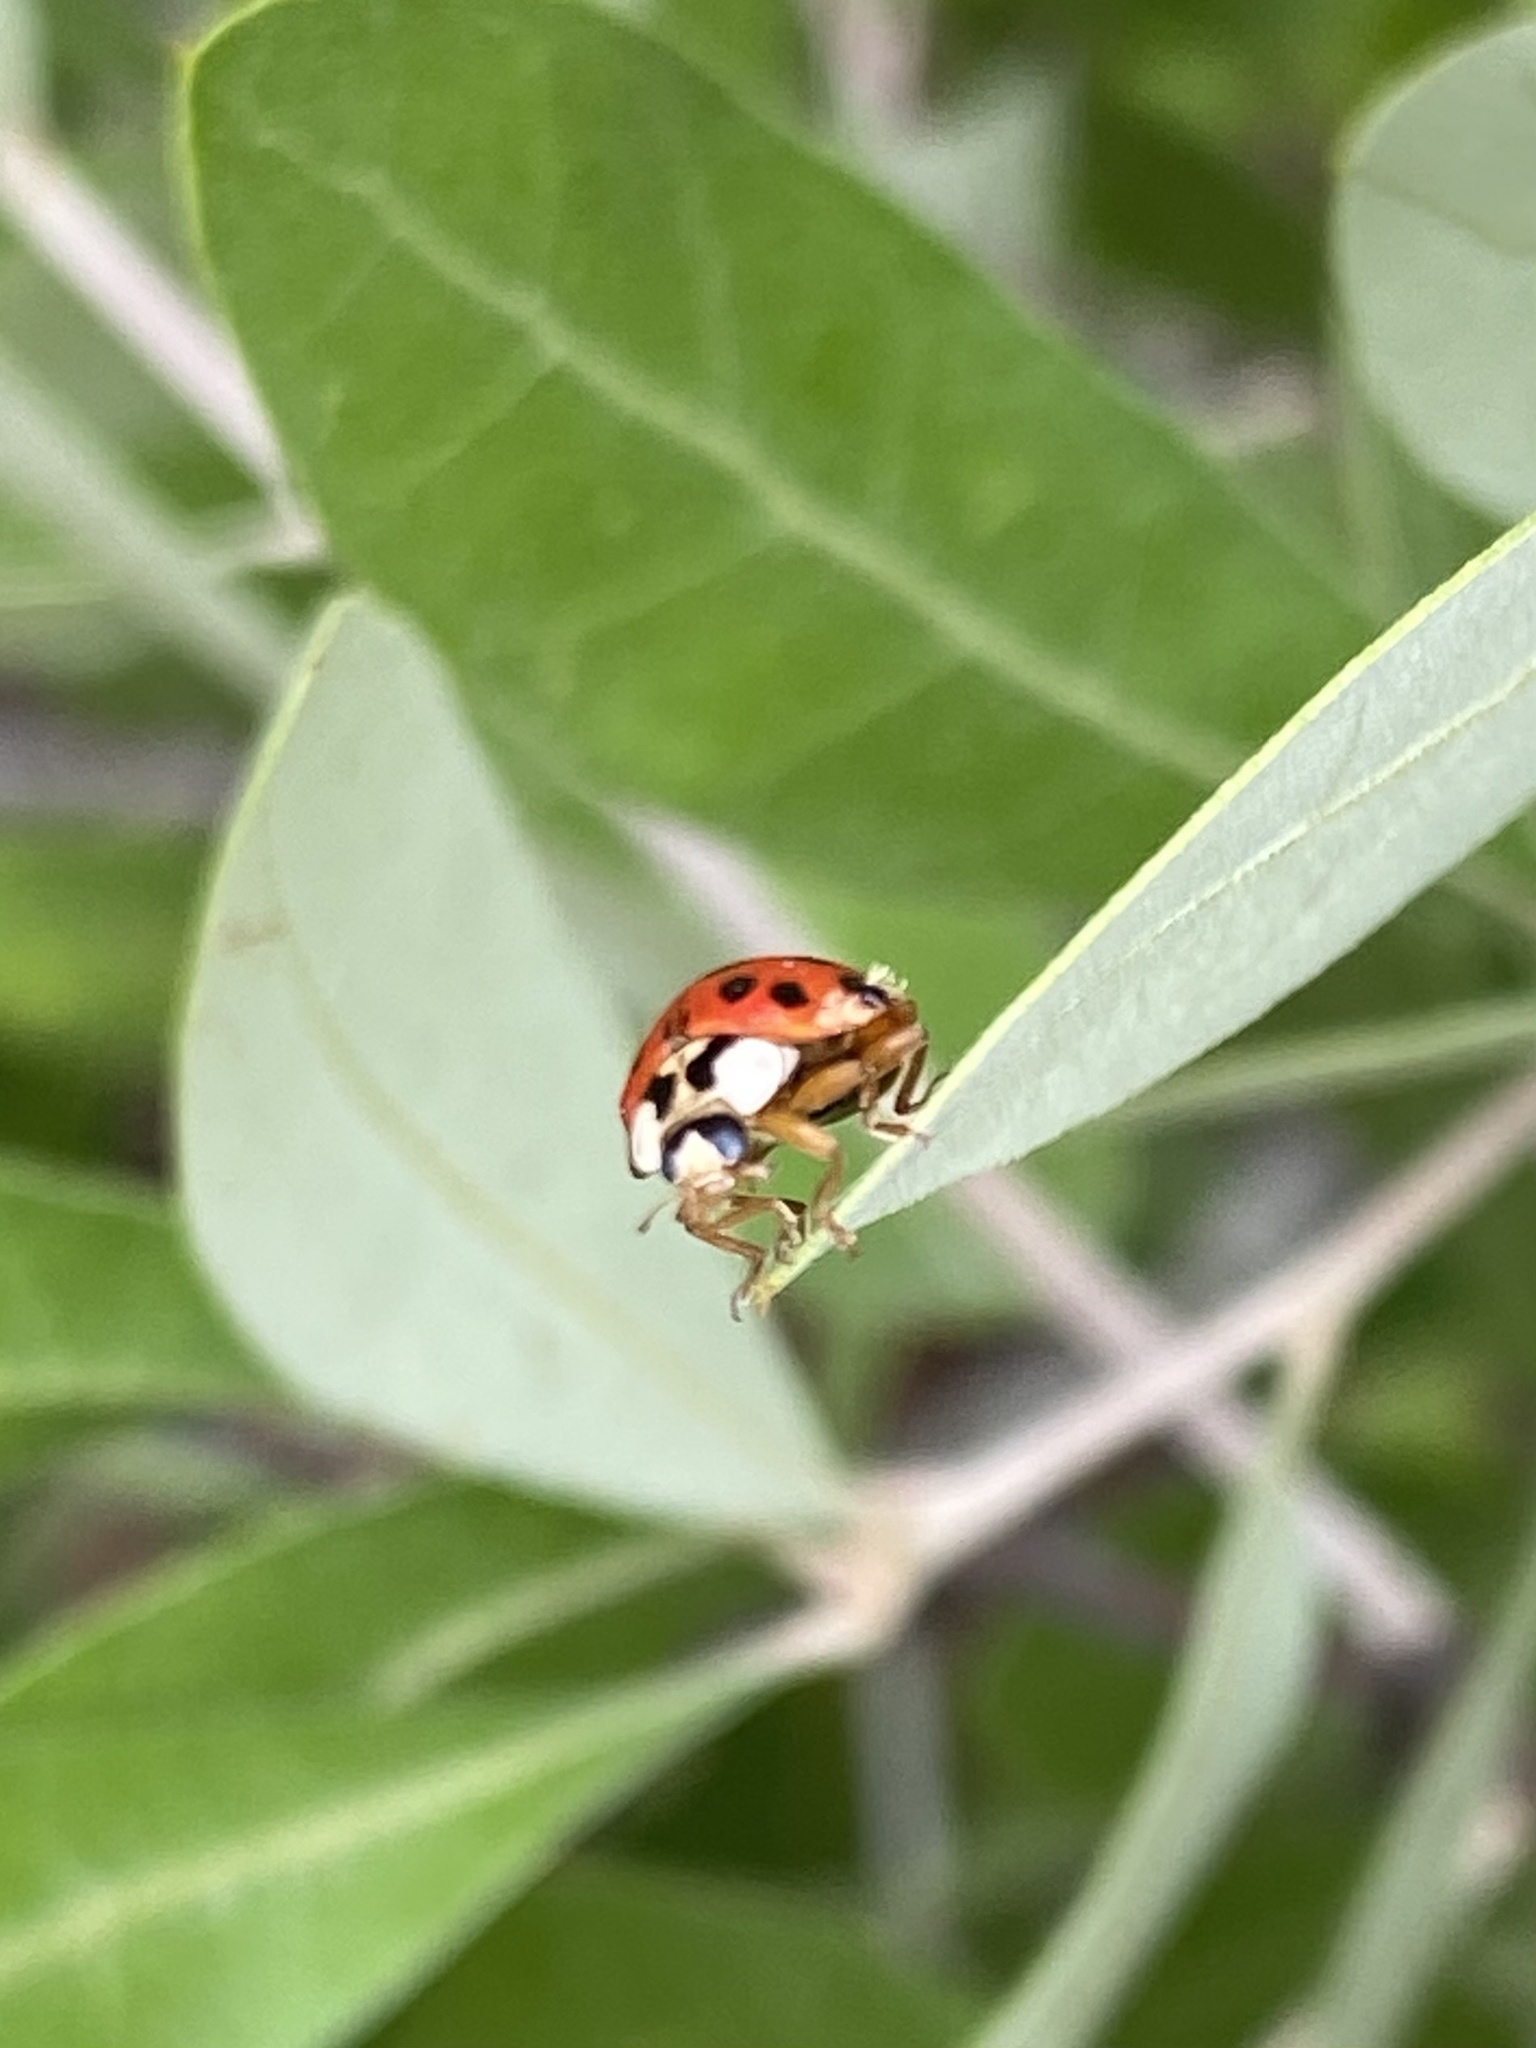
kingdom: Animalia
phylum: Arthropoda
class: Insecta
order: Coleoptera
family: Coccinellidae
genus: Harmonia
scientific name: Harmonia axyridis
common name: Harlequin ladybird
